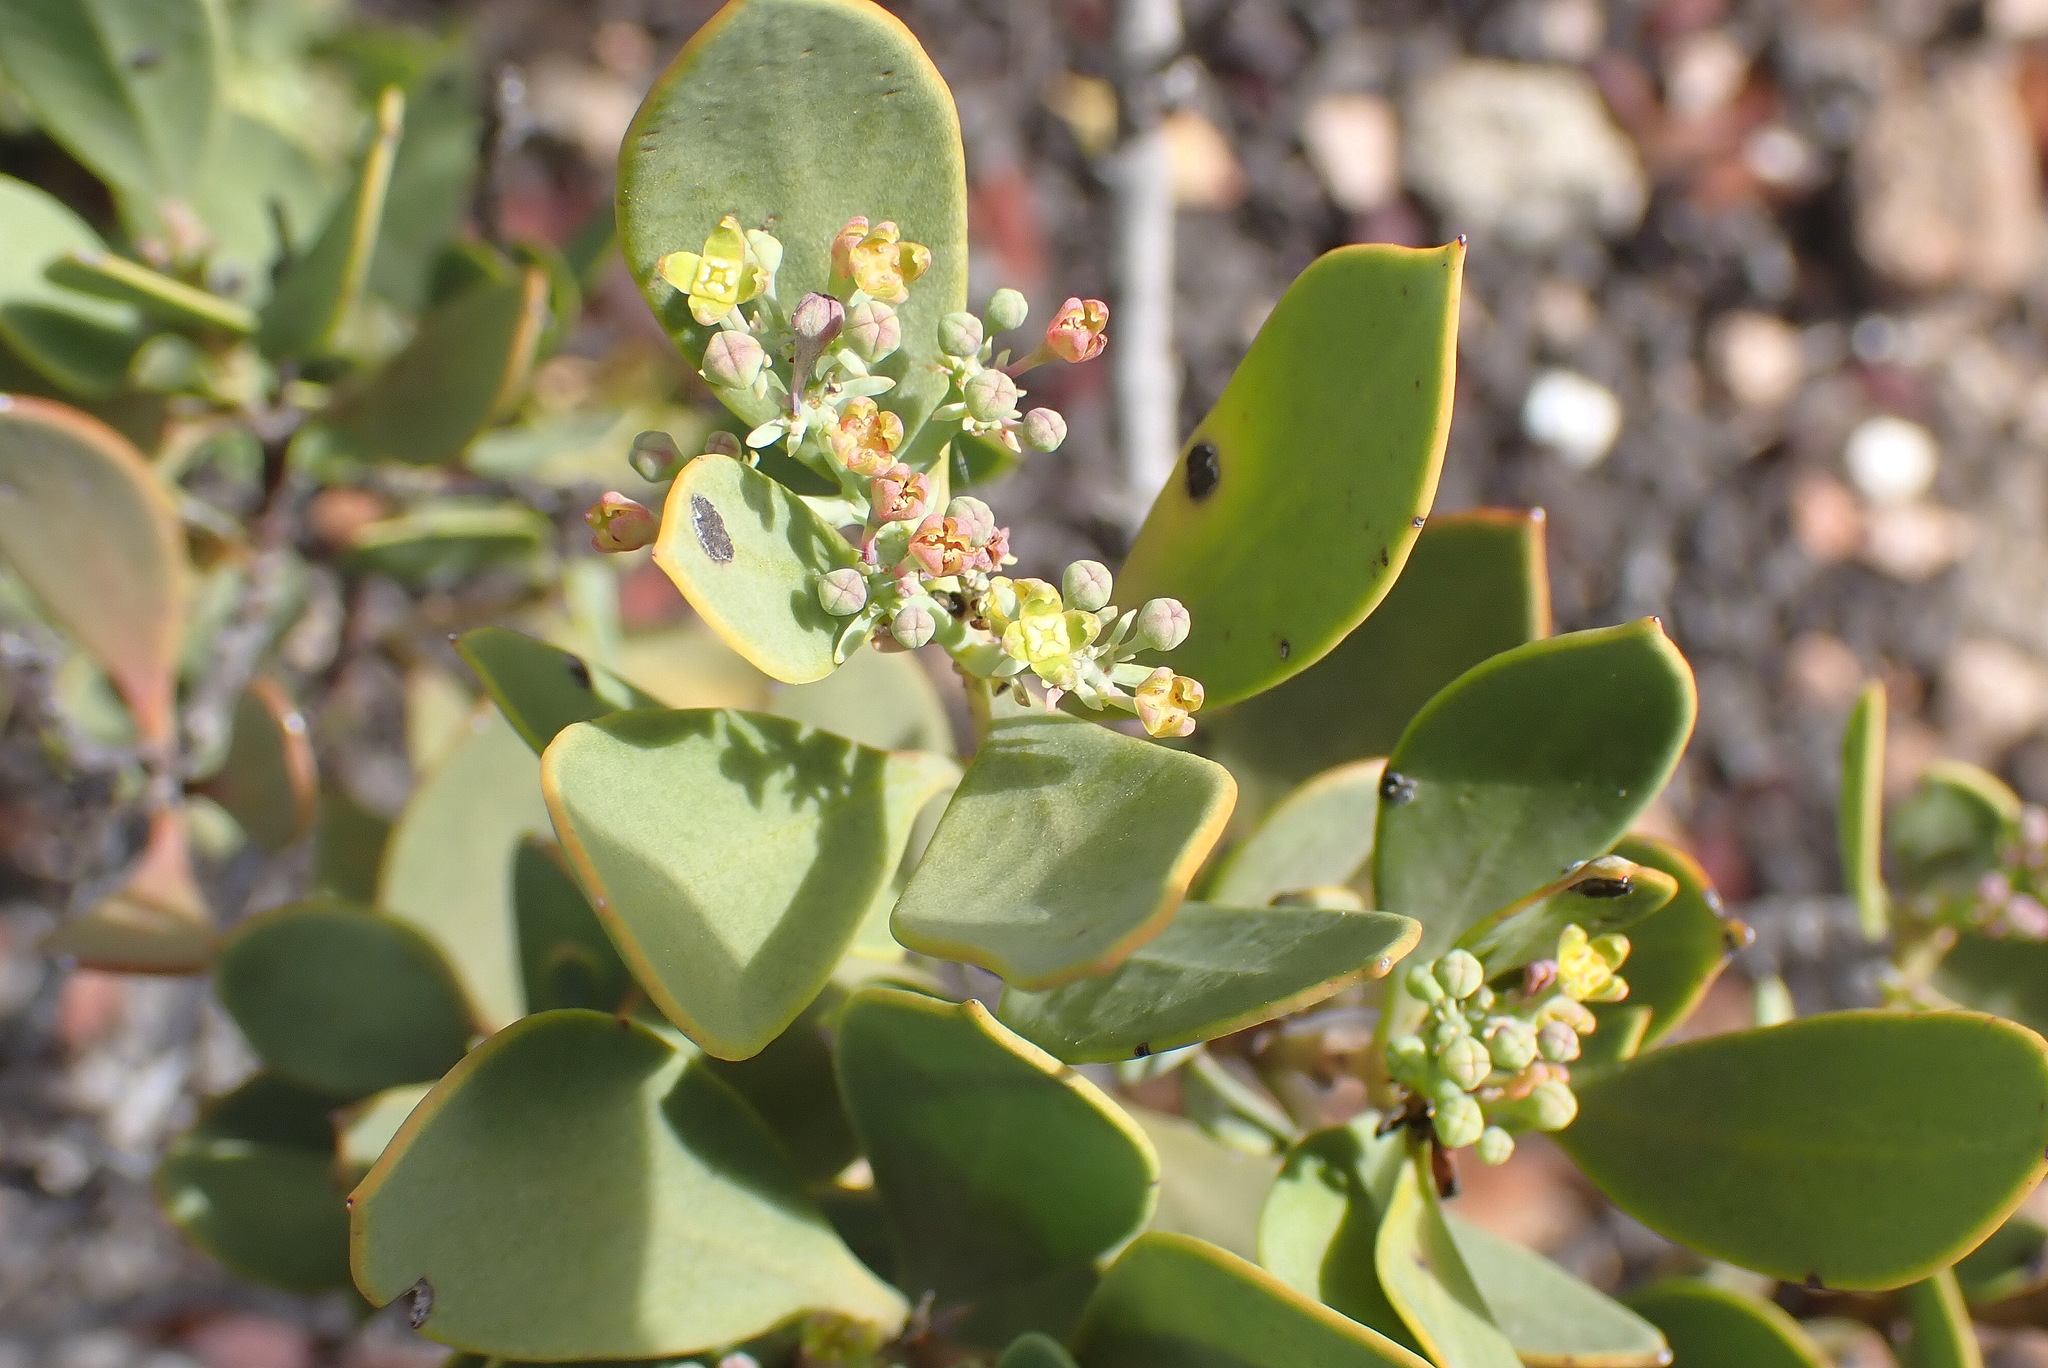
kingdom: Plantae
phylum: Tracheophyta
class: Magnoliopsida
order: Santalales
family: Santalaceae
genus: Osyris
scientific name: Osyris compressa
